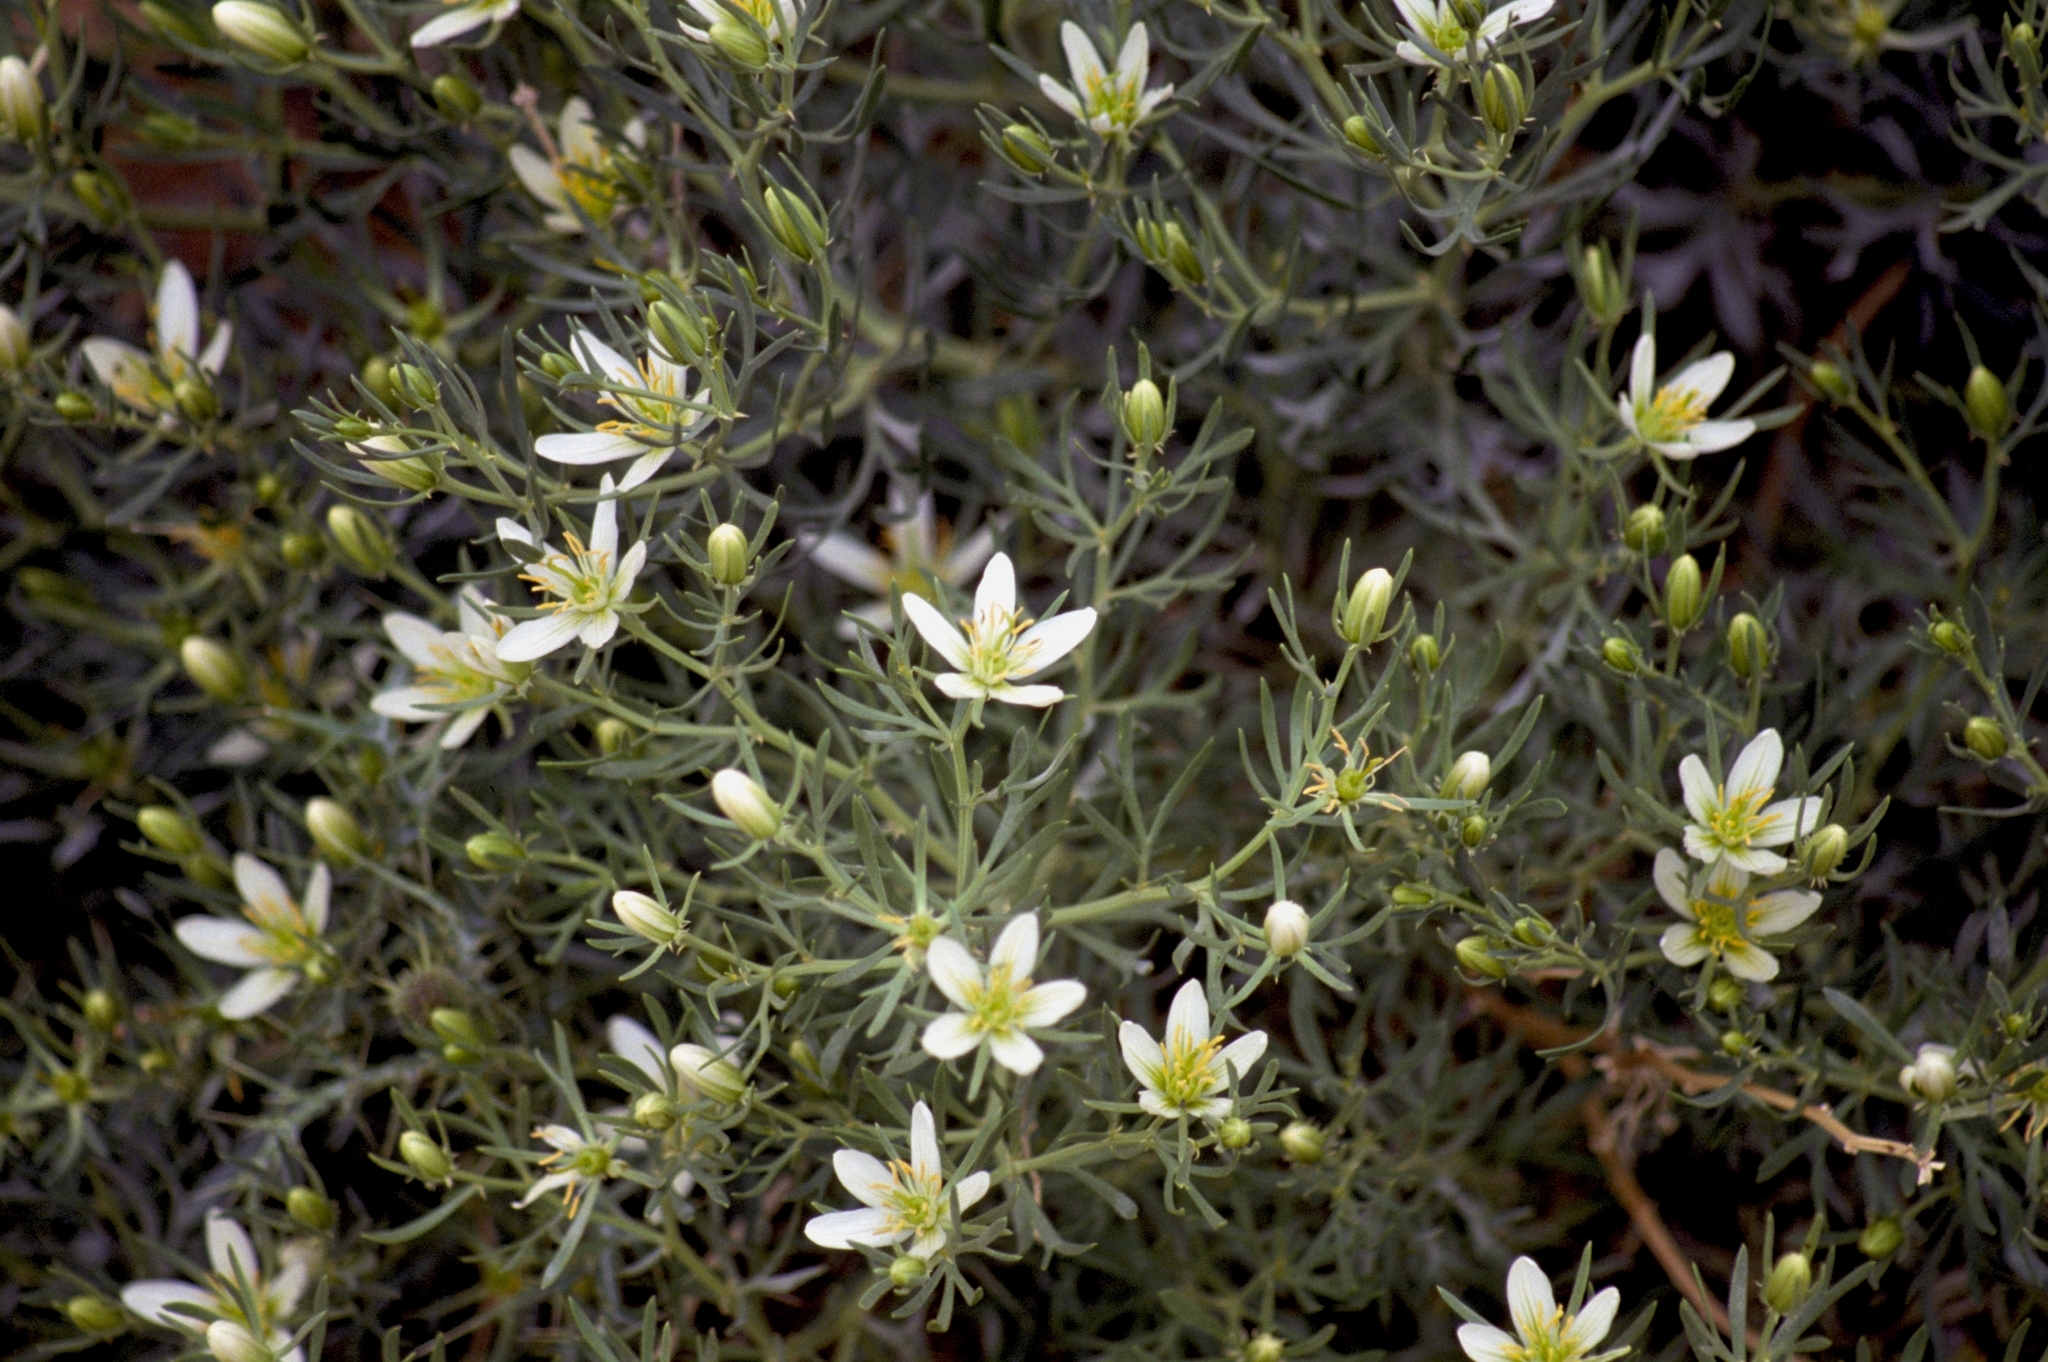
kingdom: Plantae
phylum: Tracheophyta
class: Magnoliopsida
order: Sapindales
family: Tetradiclidaceae
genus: Peganum
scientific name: Peganum harmala
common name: Harmal peganum
